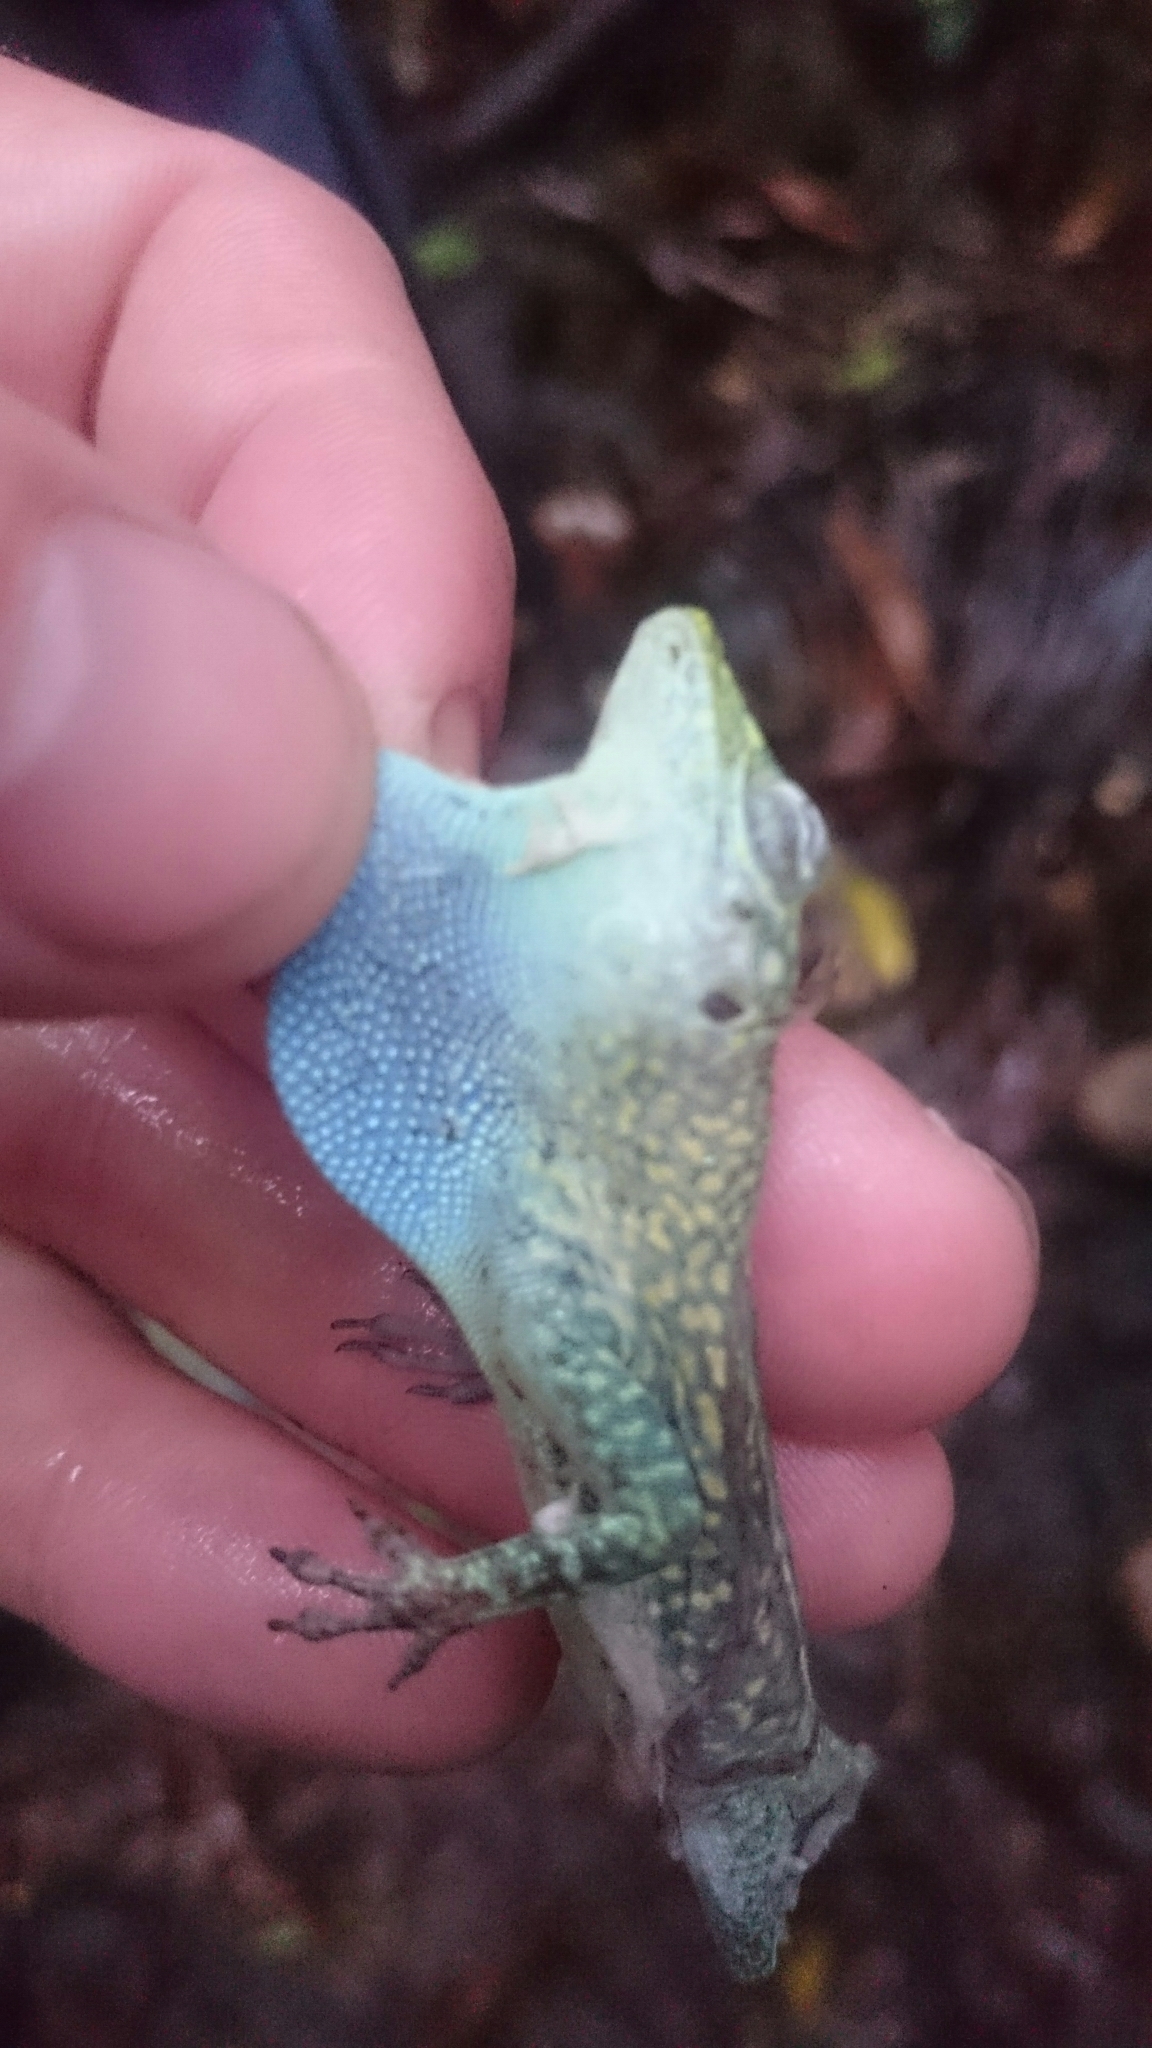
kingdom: Animalia
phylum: Chordata
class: Squamata
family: Dactyloidae
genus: Anolis
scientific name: Anolis conspersus
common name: Grand cayman anole
